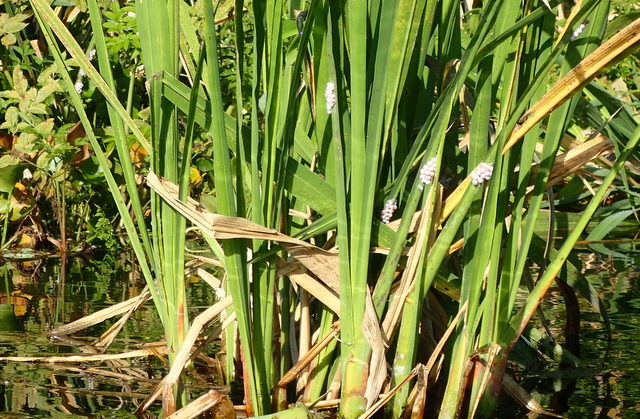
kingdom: Animalia
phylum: Mollusca
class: Gastropoda
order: Architaenioglossa
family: Ampullariidae
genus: Pomacea
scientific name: Pomacea paludosa
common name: Florida applesnail
